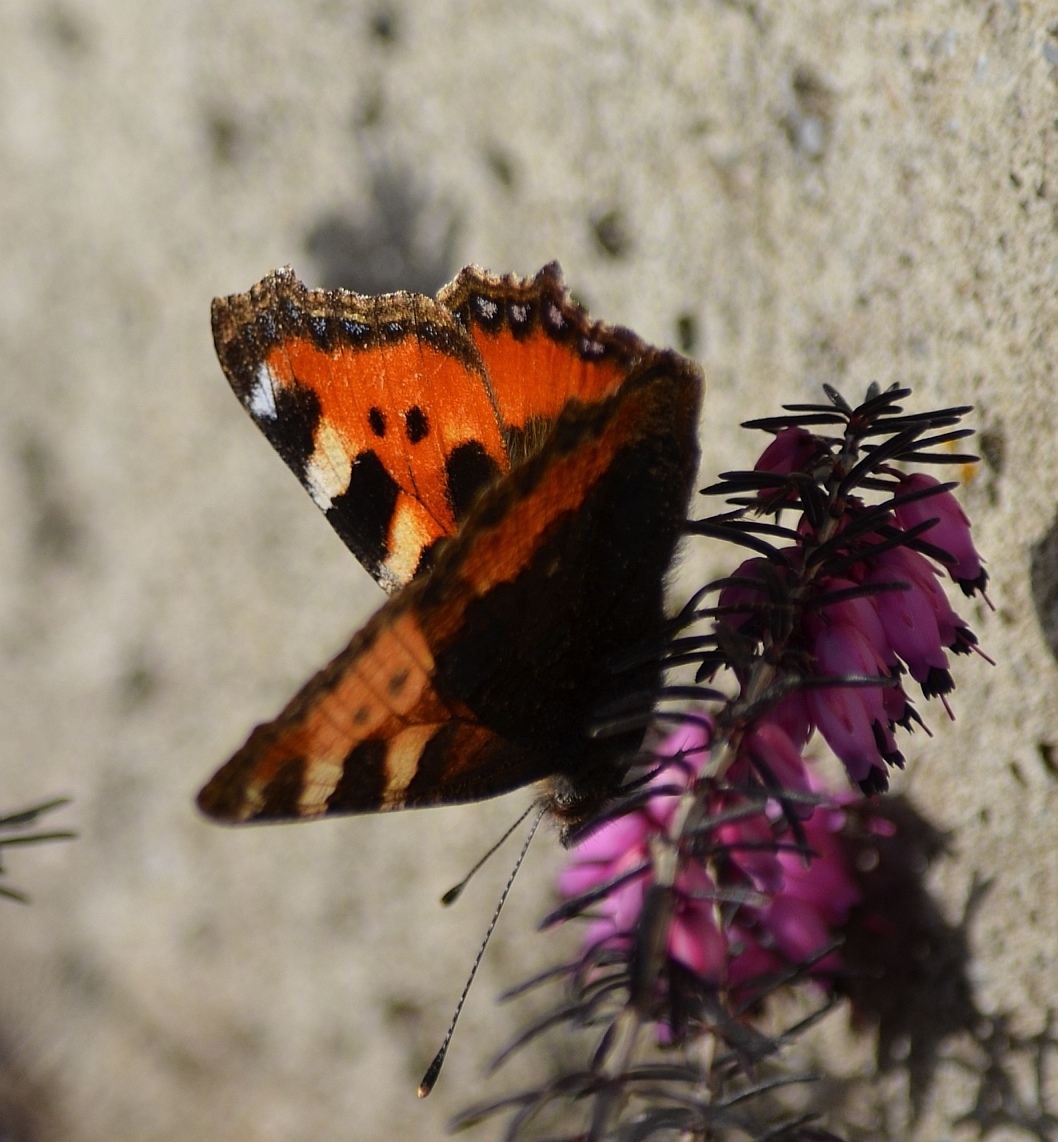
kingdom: Animalia
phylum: Arthropoda
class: Insecta
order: Lepidoptera
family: Nymphalidae
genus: Aglais
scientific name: Aglais urticae
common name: Small tortoiseshell
